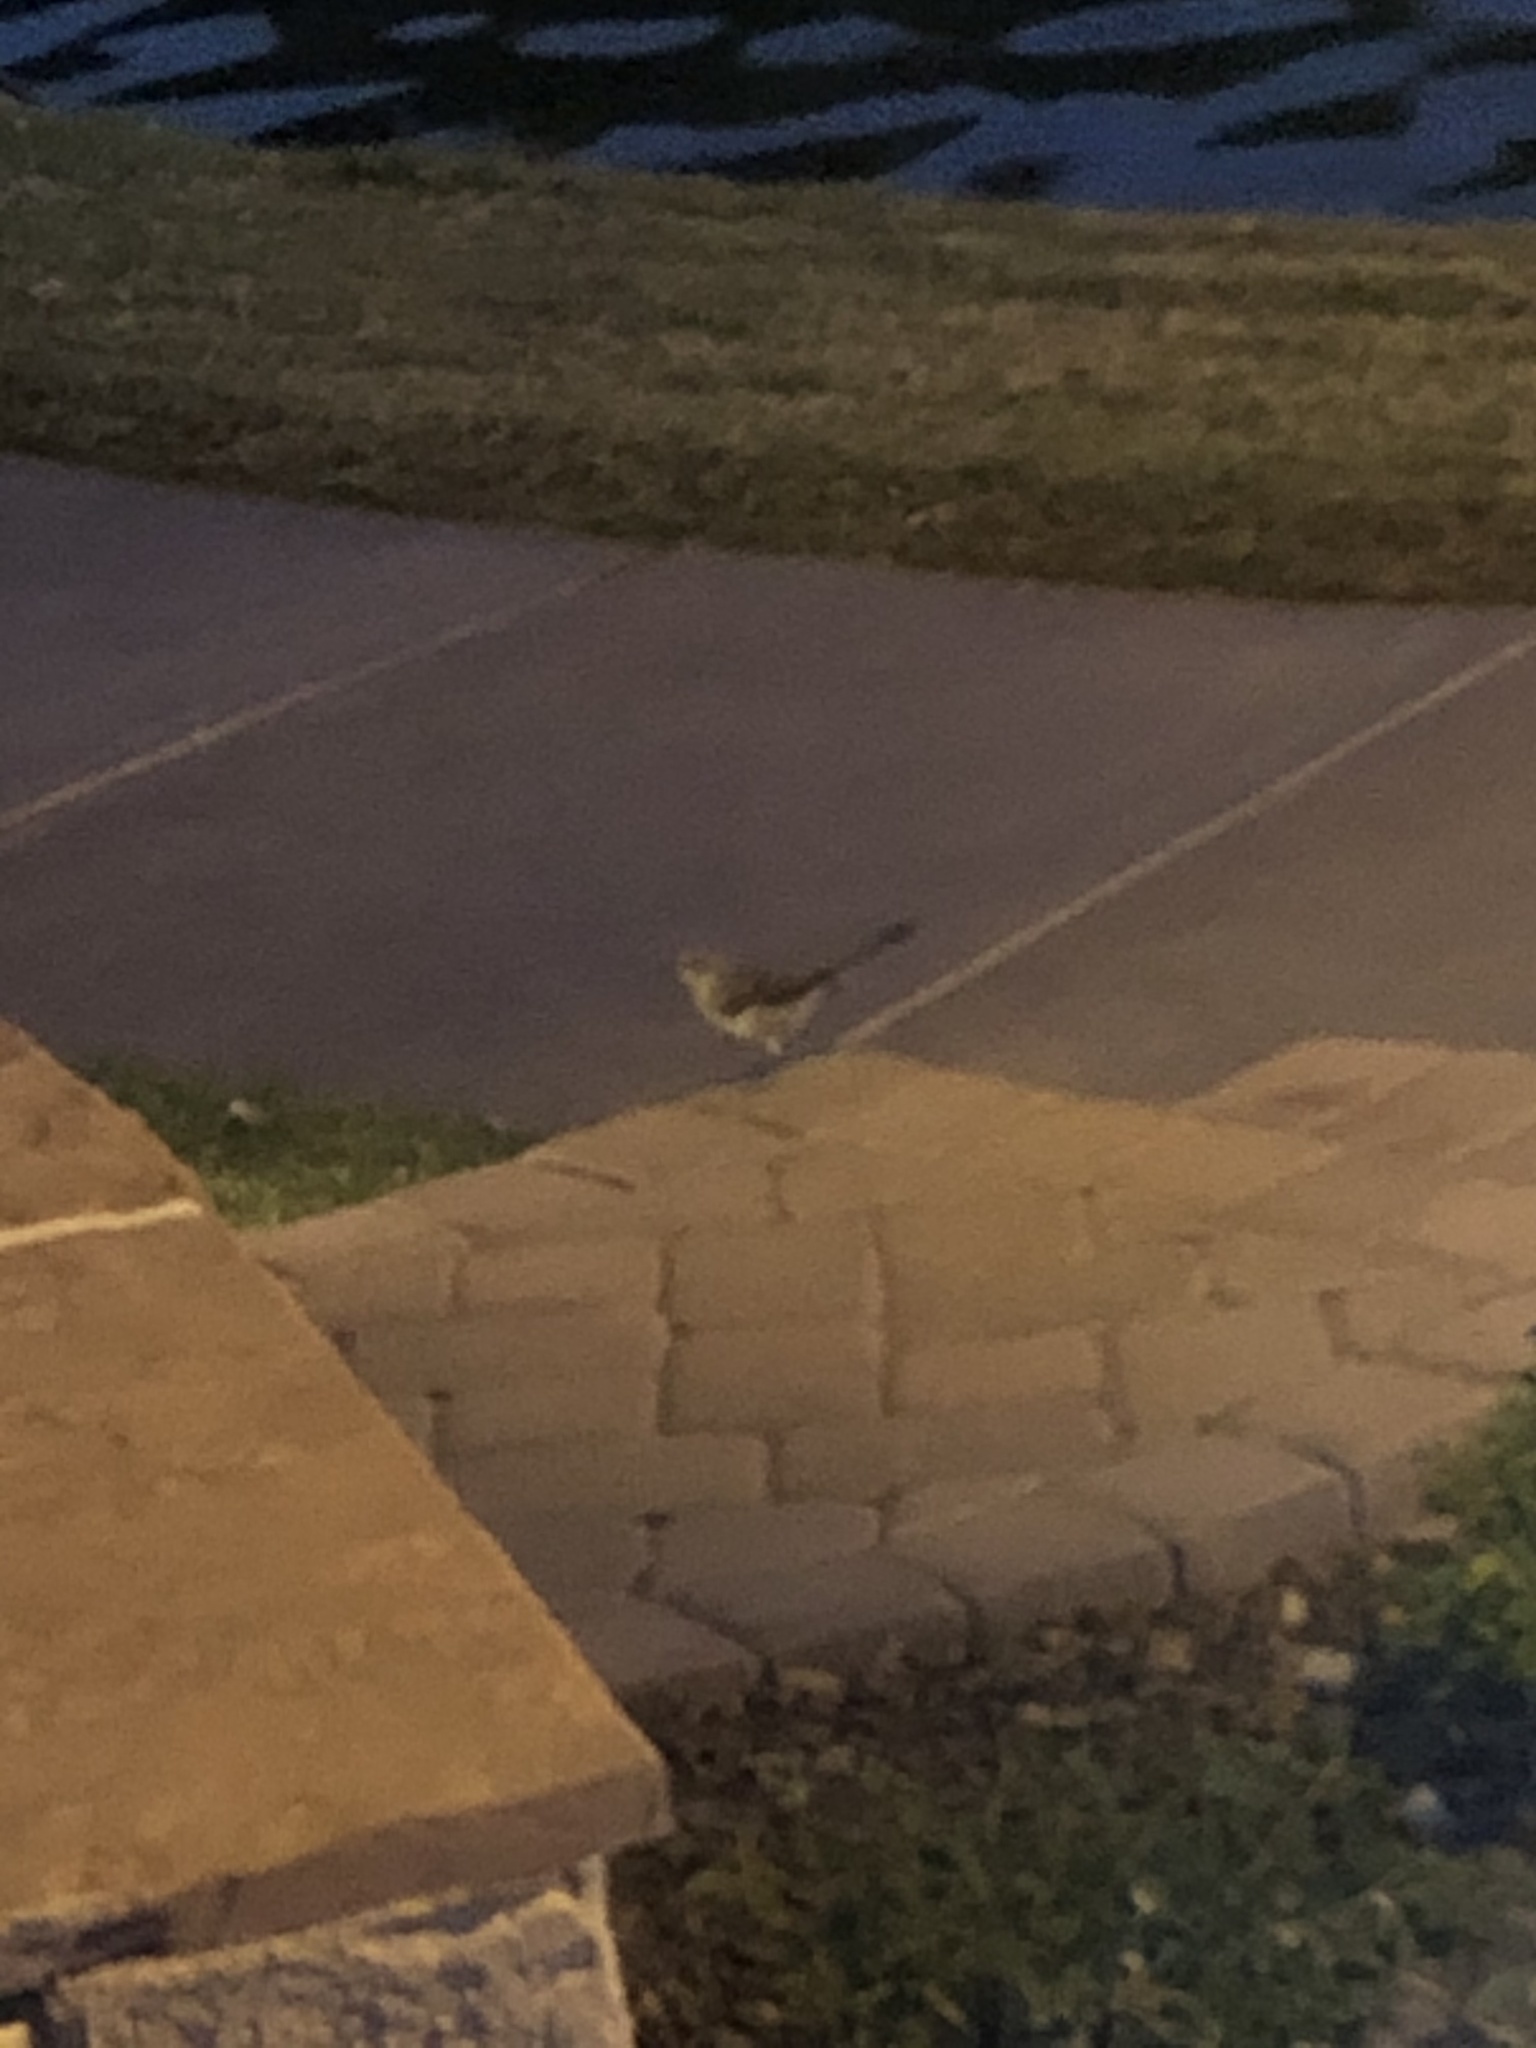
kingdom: Animalia
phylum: Chordata
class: Aves
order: Passeriformes
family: Mimidae
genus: Mimus
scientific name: Mimus polyglottos
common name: Northern mockingbird
